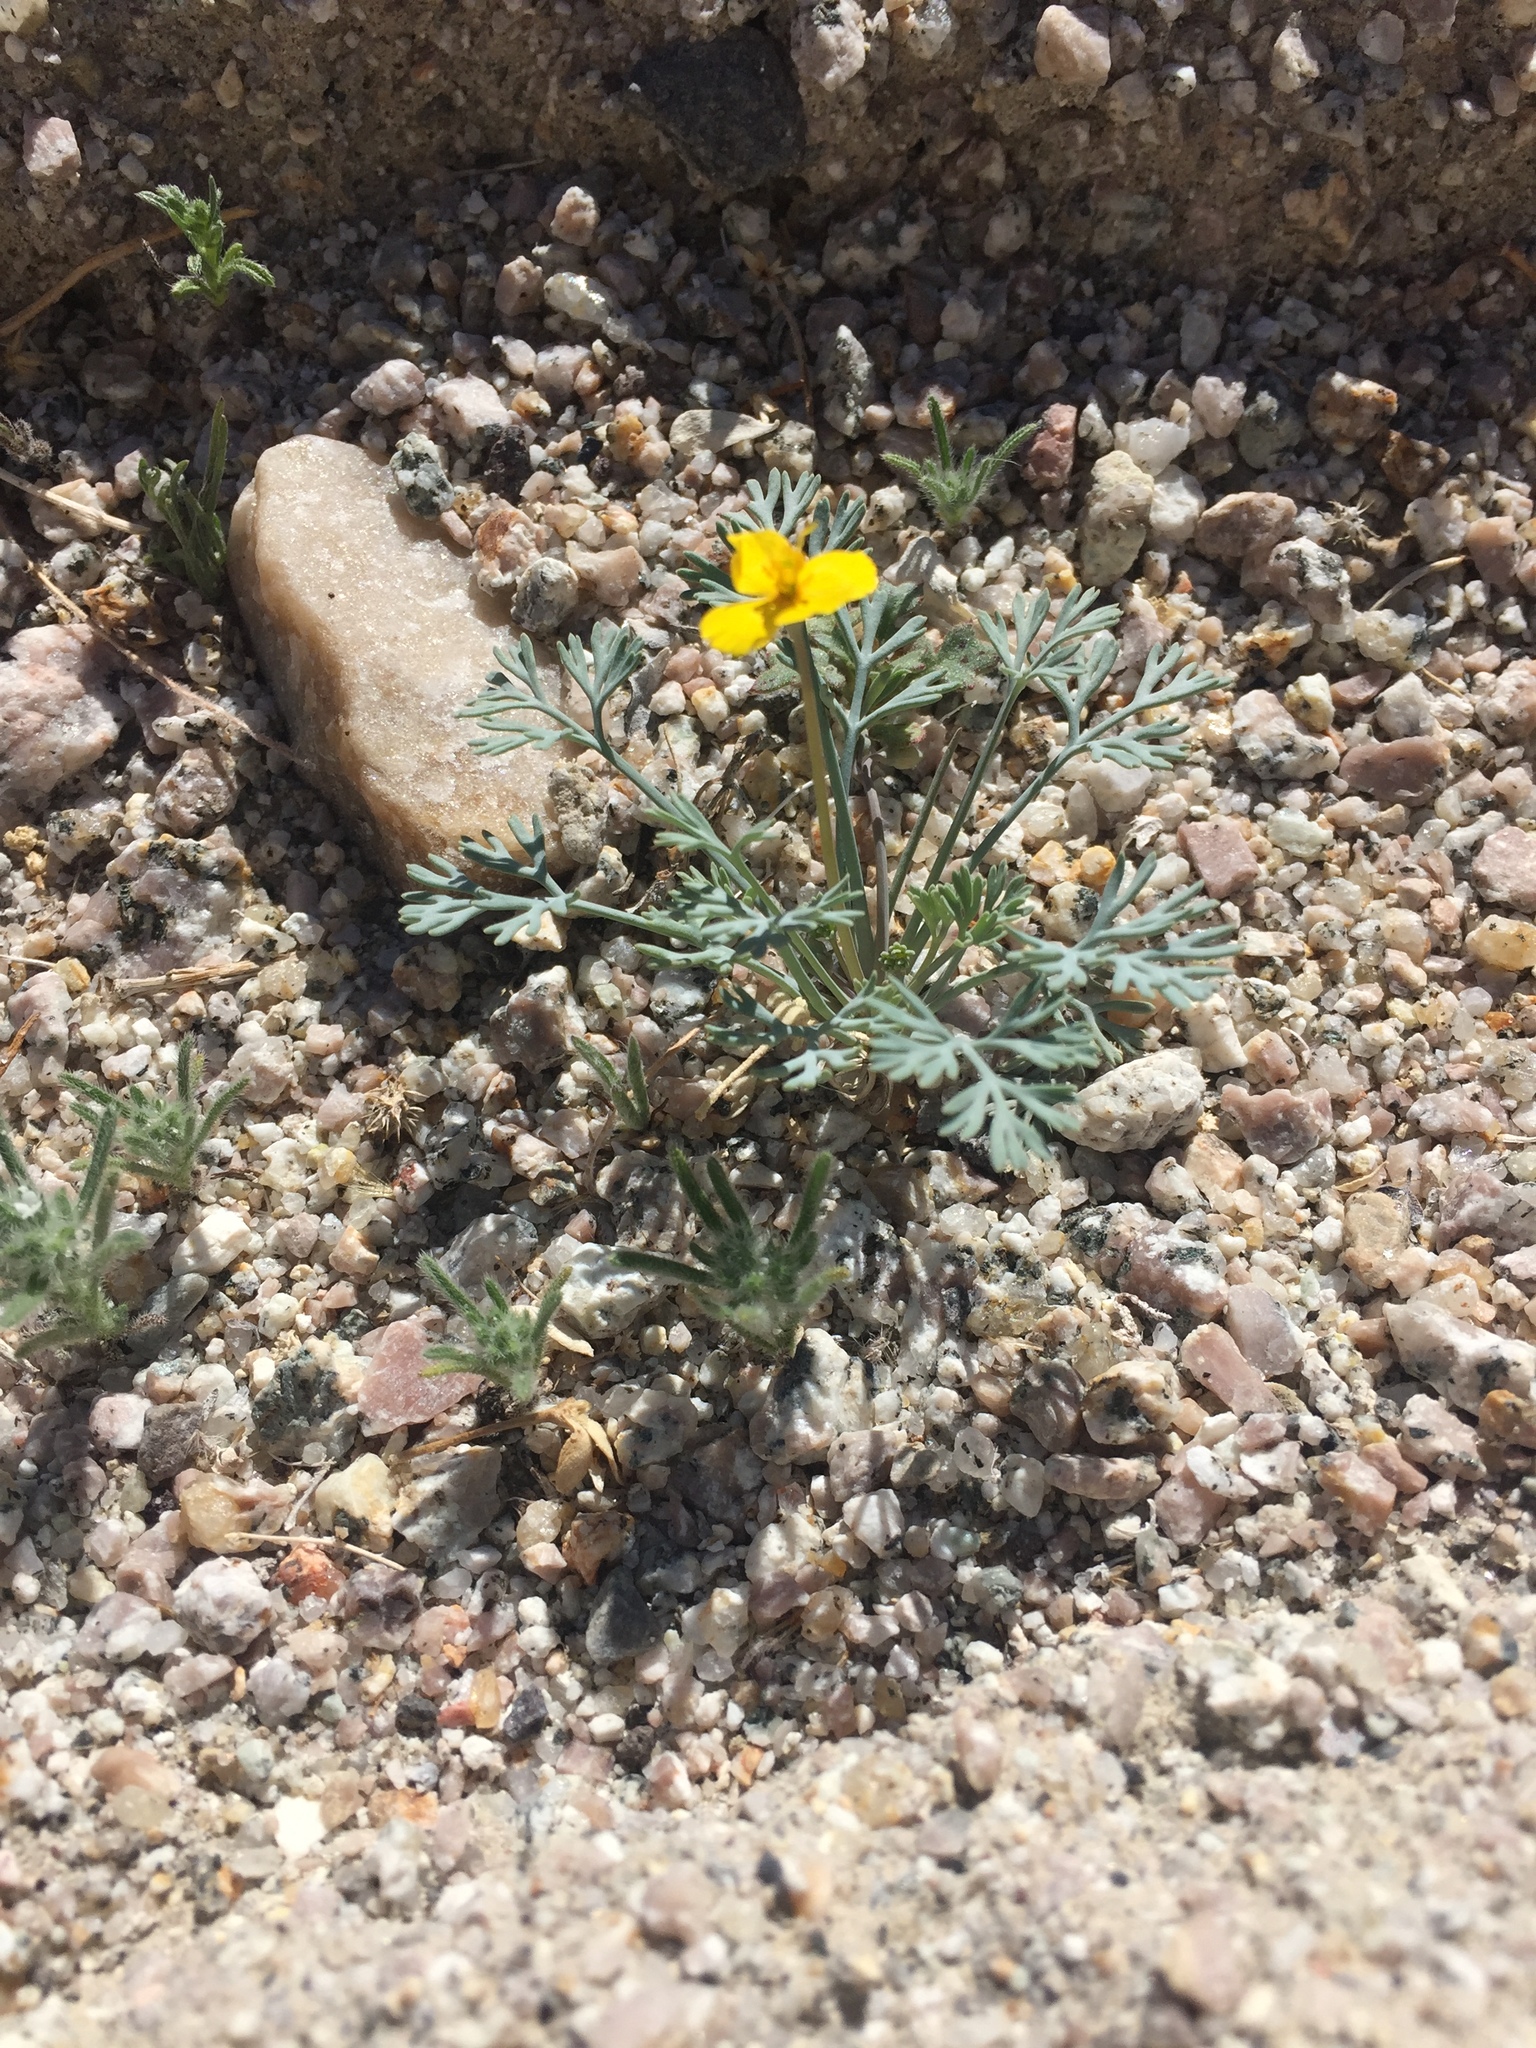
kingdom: Plantae
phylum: Tracheophyta
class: Magnoliopsida
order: Ranunculales
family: Papaveraceae
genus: Eschscholzia
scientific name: Eschscholzia minutiflora
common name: Small-flower california-poppy
